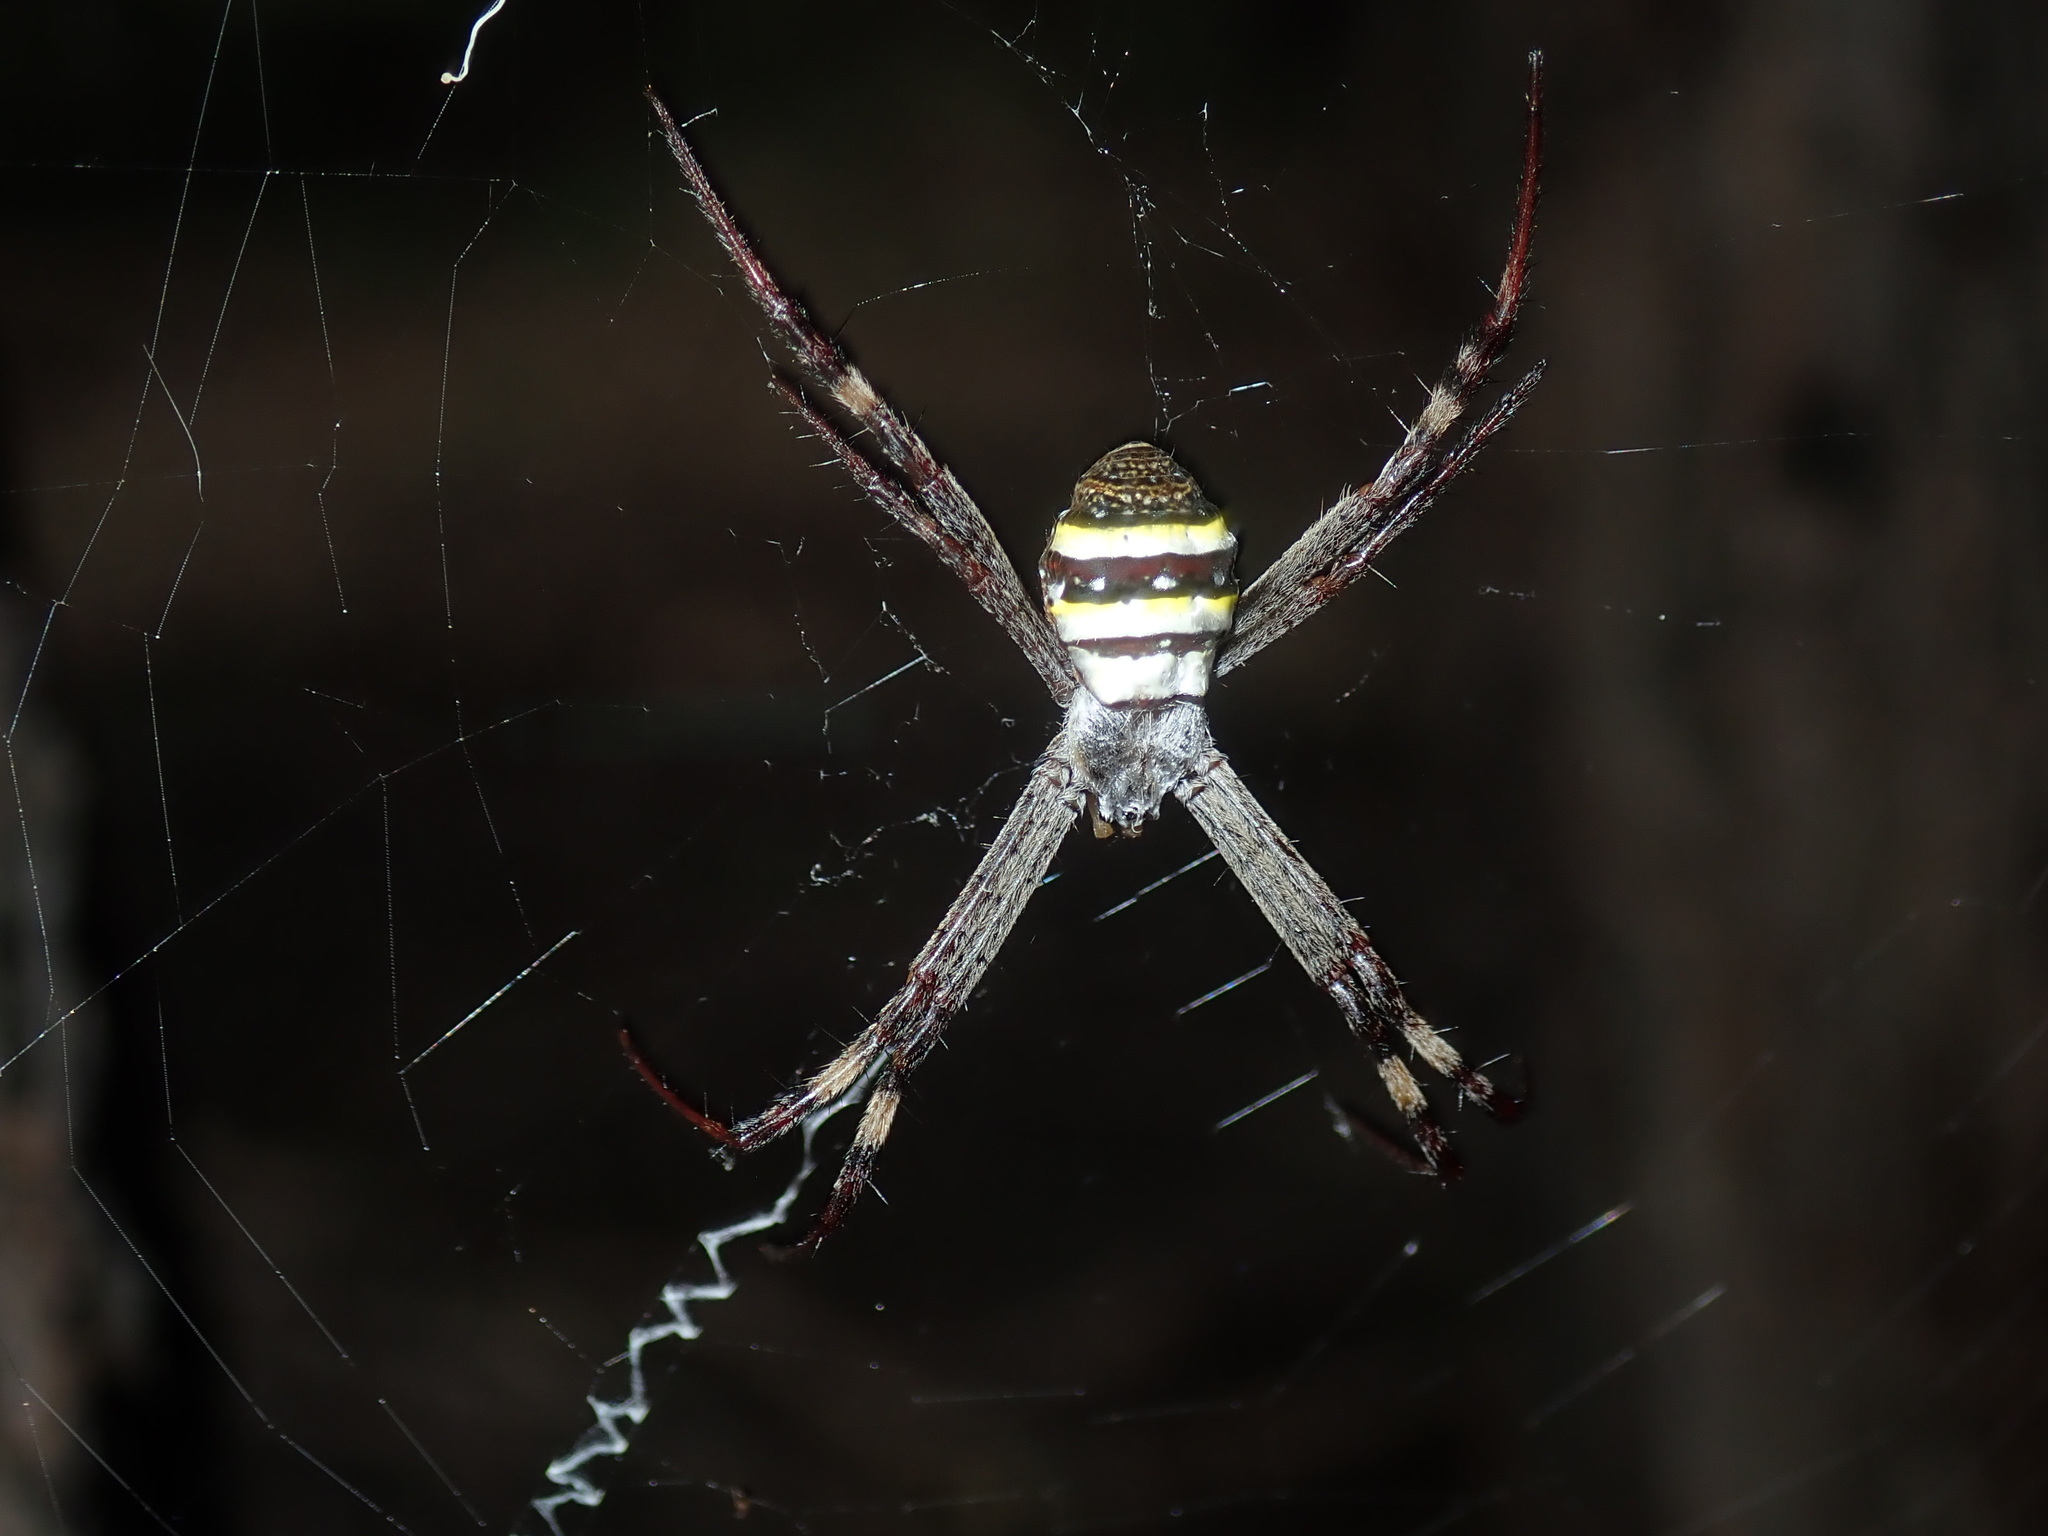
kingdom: Animalia
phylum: Arthropoda
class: Arachnida
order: Araneae
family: Araneidae
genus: Argiope
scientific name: Argiope keyserlingi
